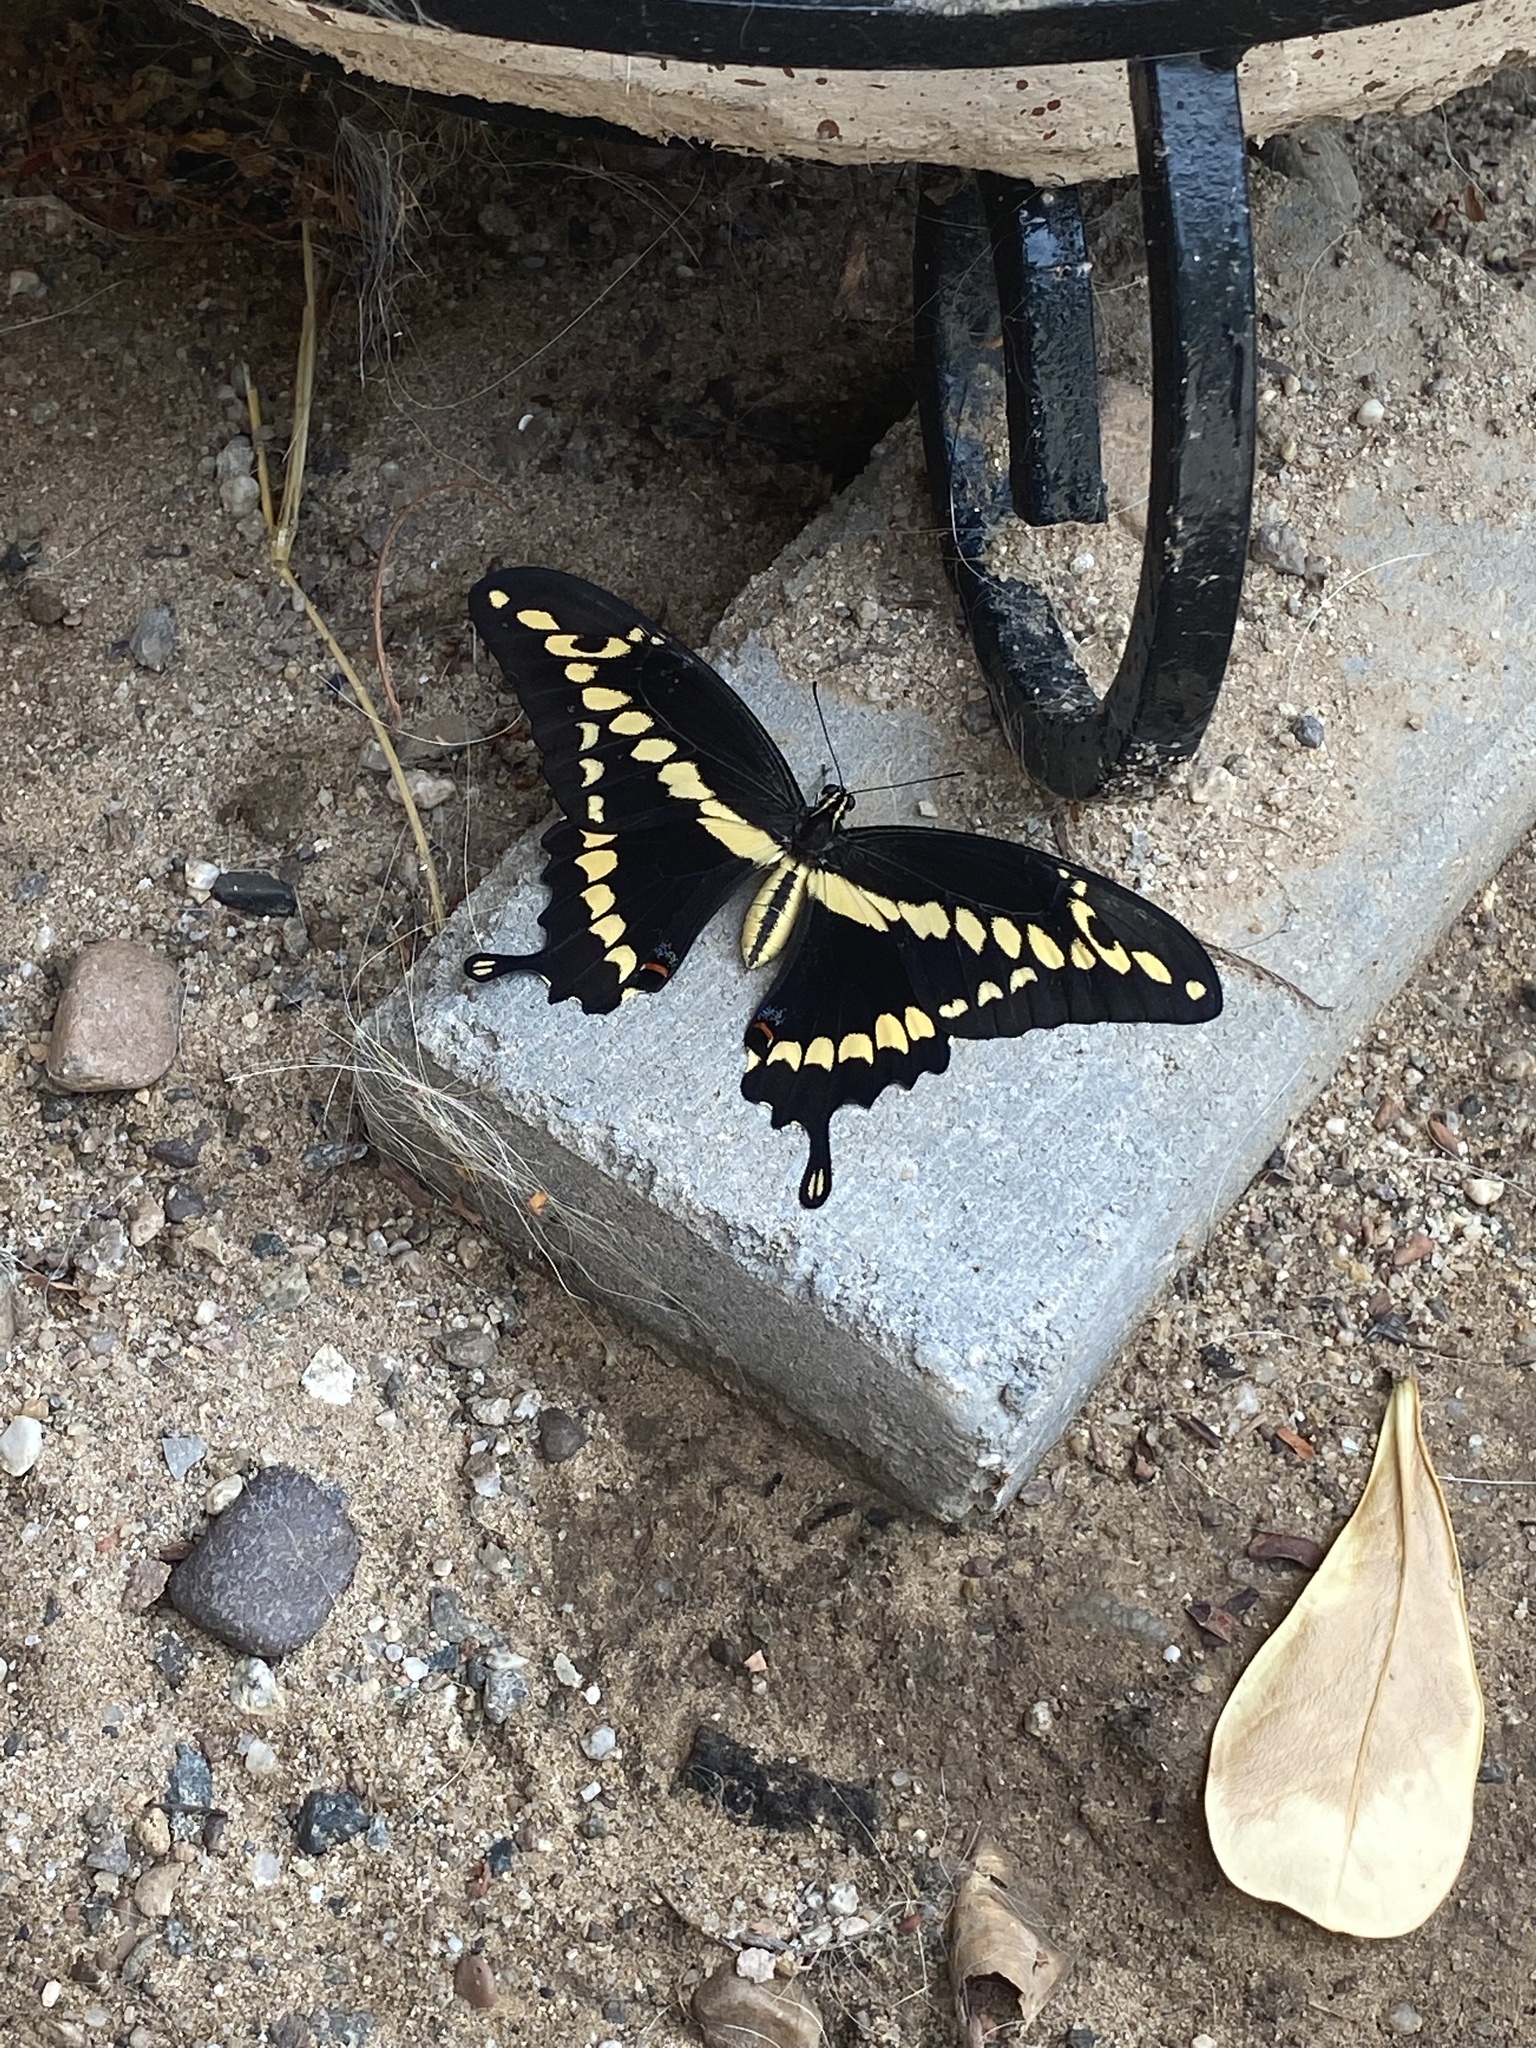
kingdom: Animalia
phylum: Arthropoda
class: Insecta
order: Lepidoptera
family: Papilionidae
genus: Papilio
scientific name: Papilio rumiko
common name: Western giant swallowtail
